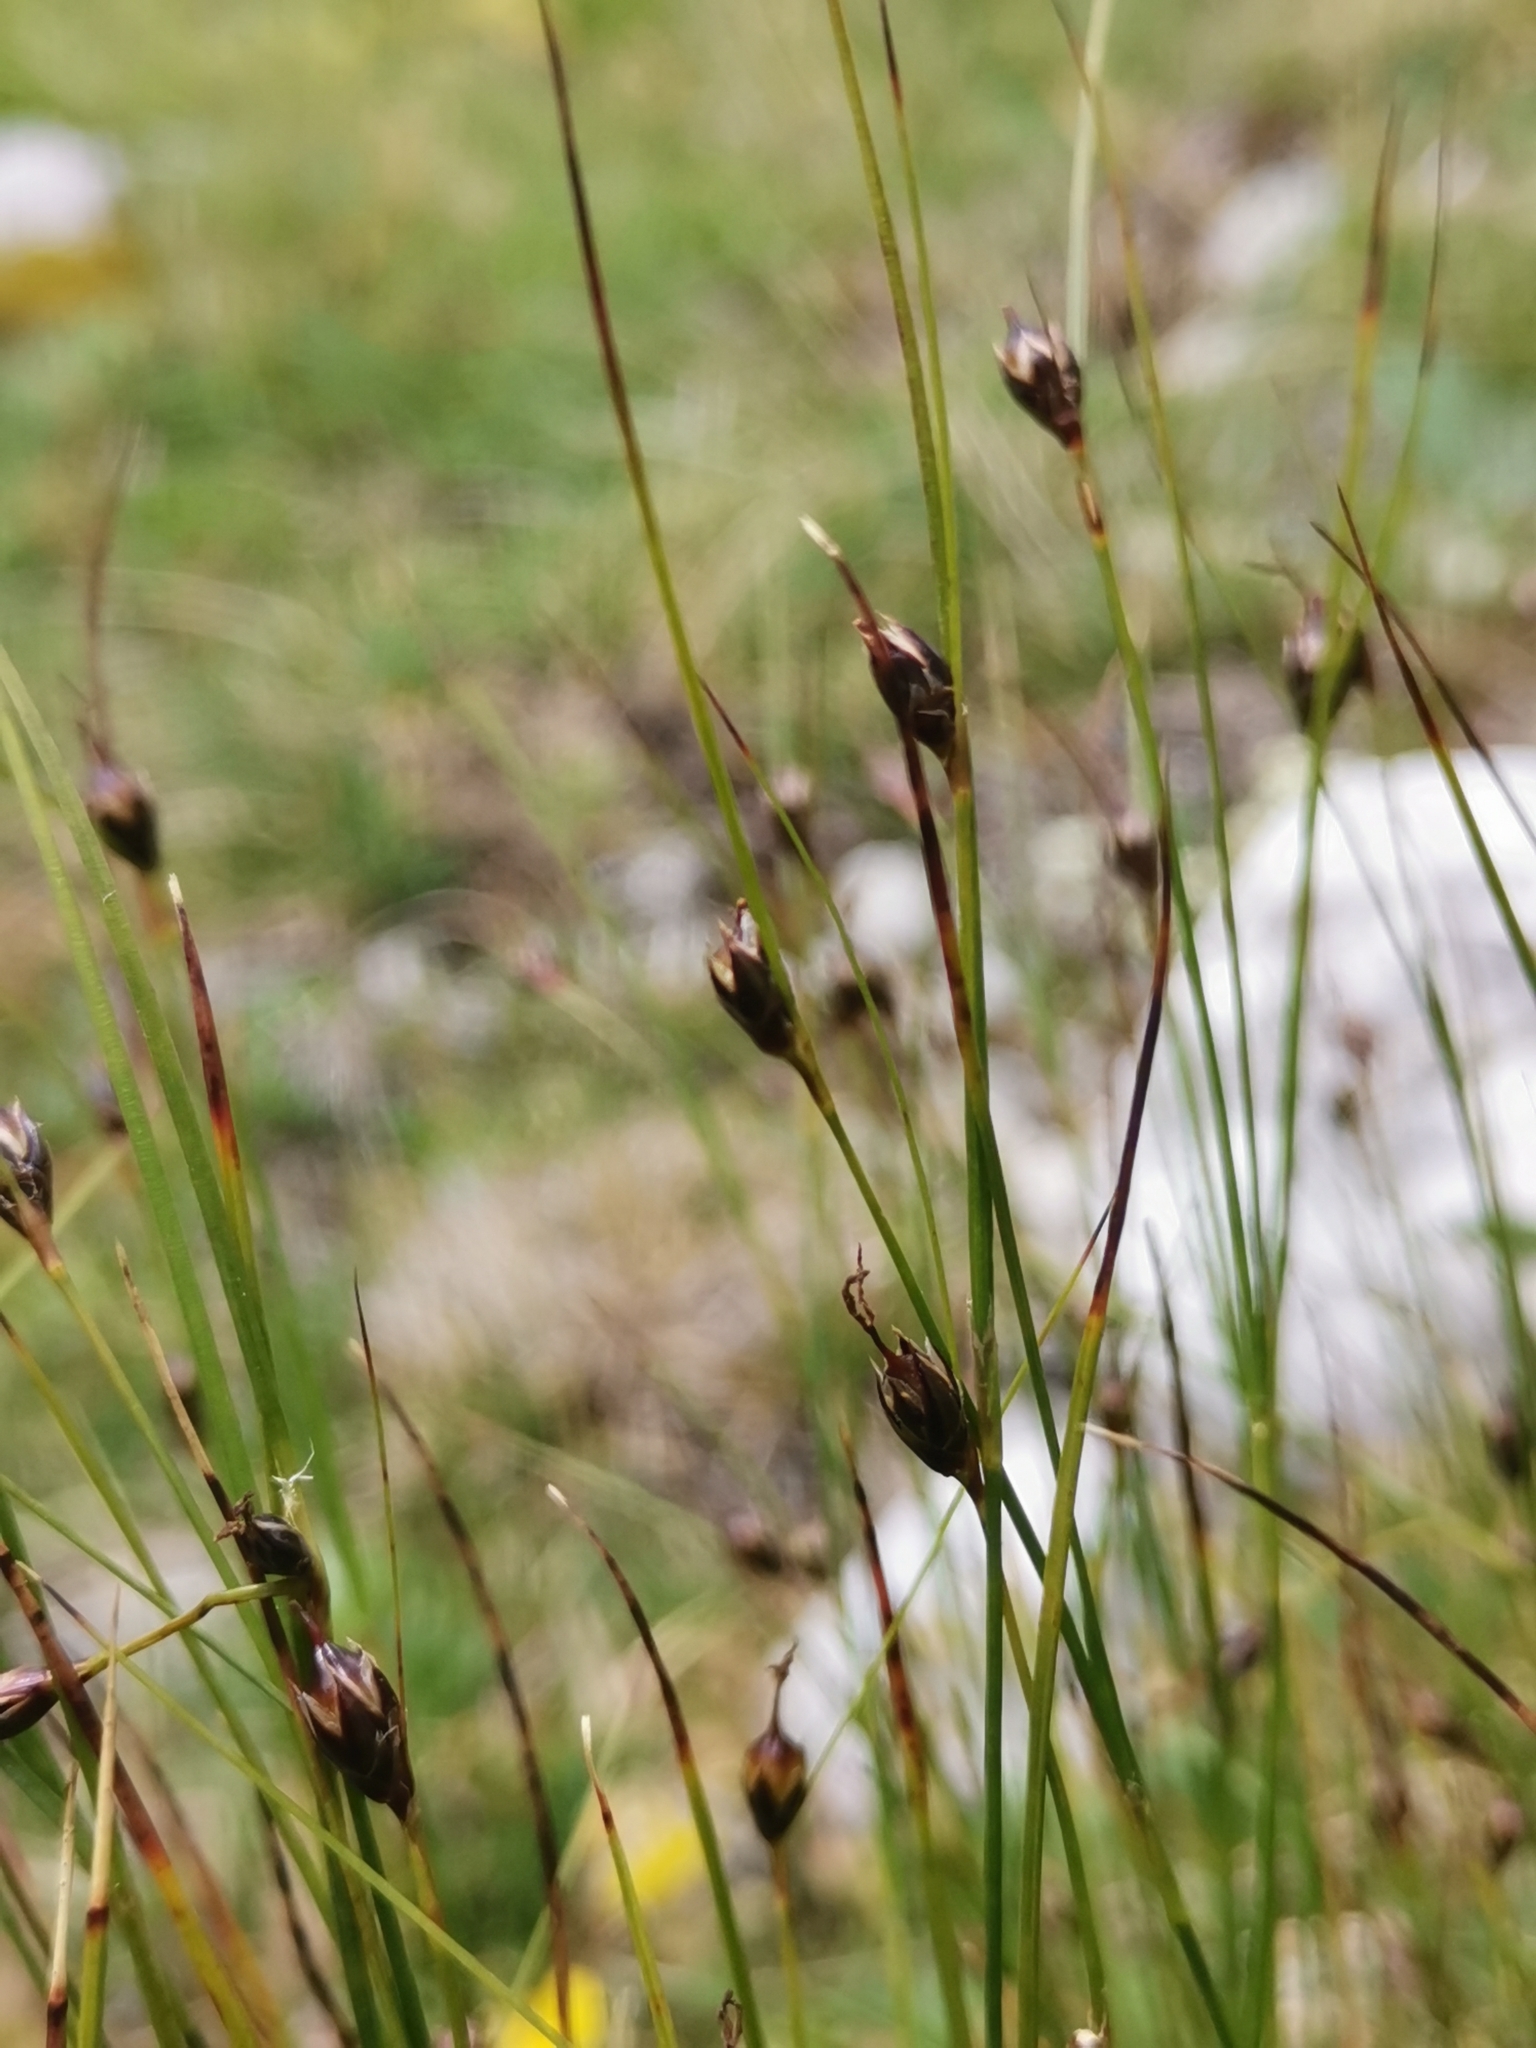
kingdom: Plantae
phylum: Tracheophyta
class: Liliopsida
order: Poales
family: Juncaceae
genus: Oreojuncus
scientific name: Oreojuncus monanthos
